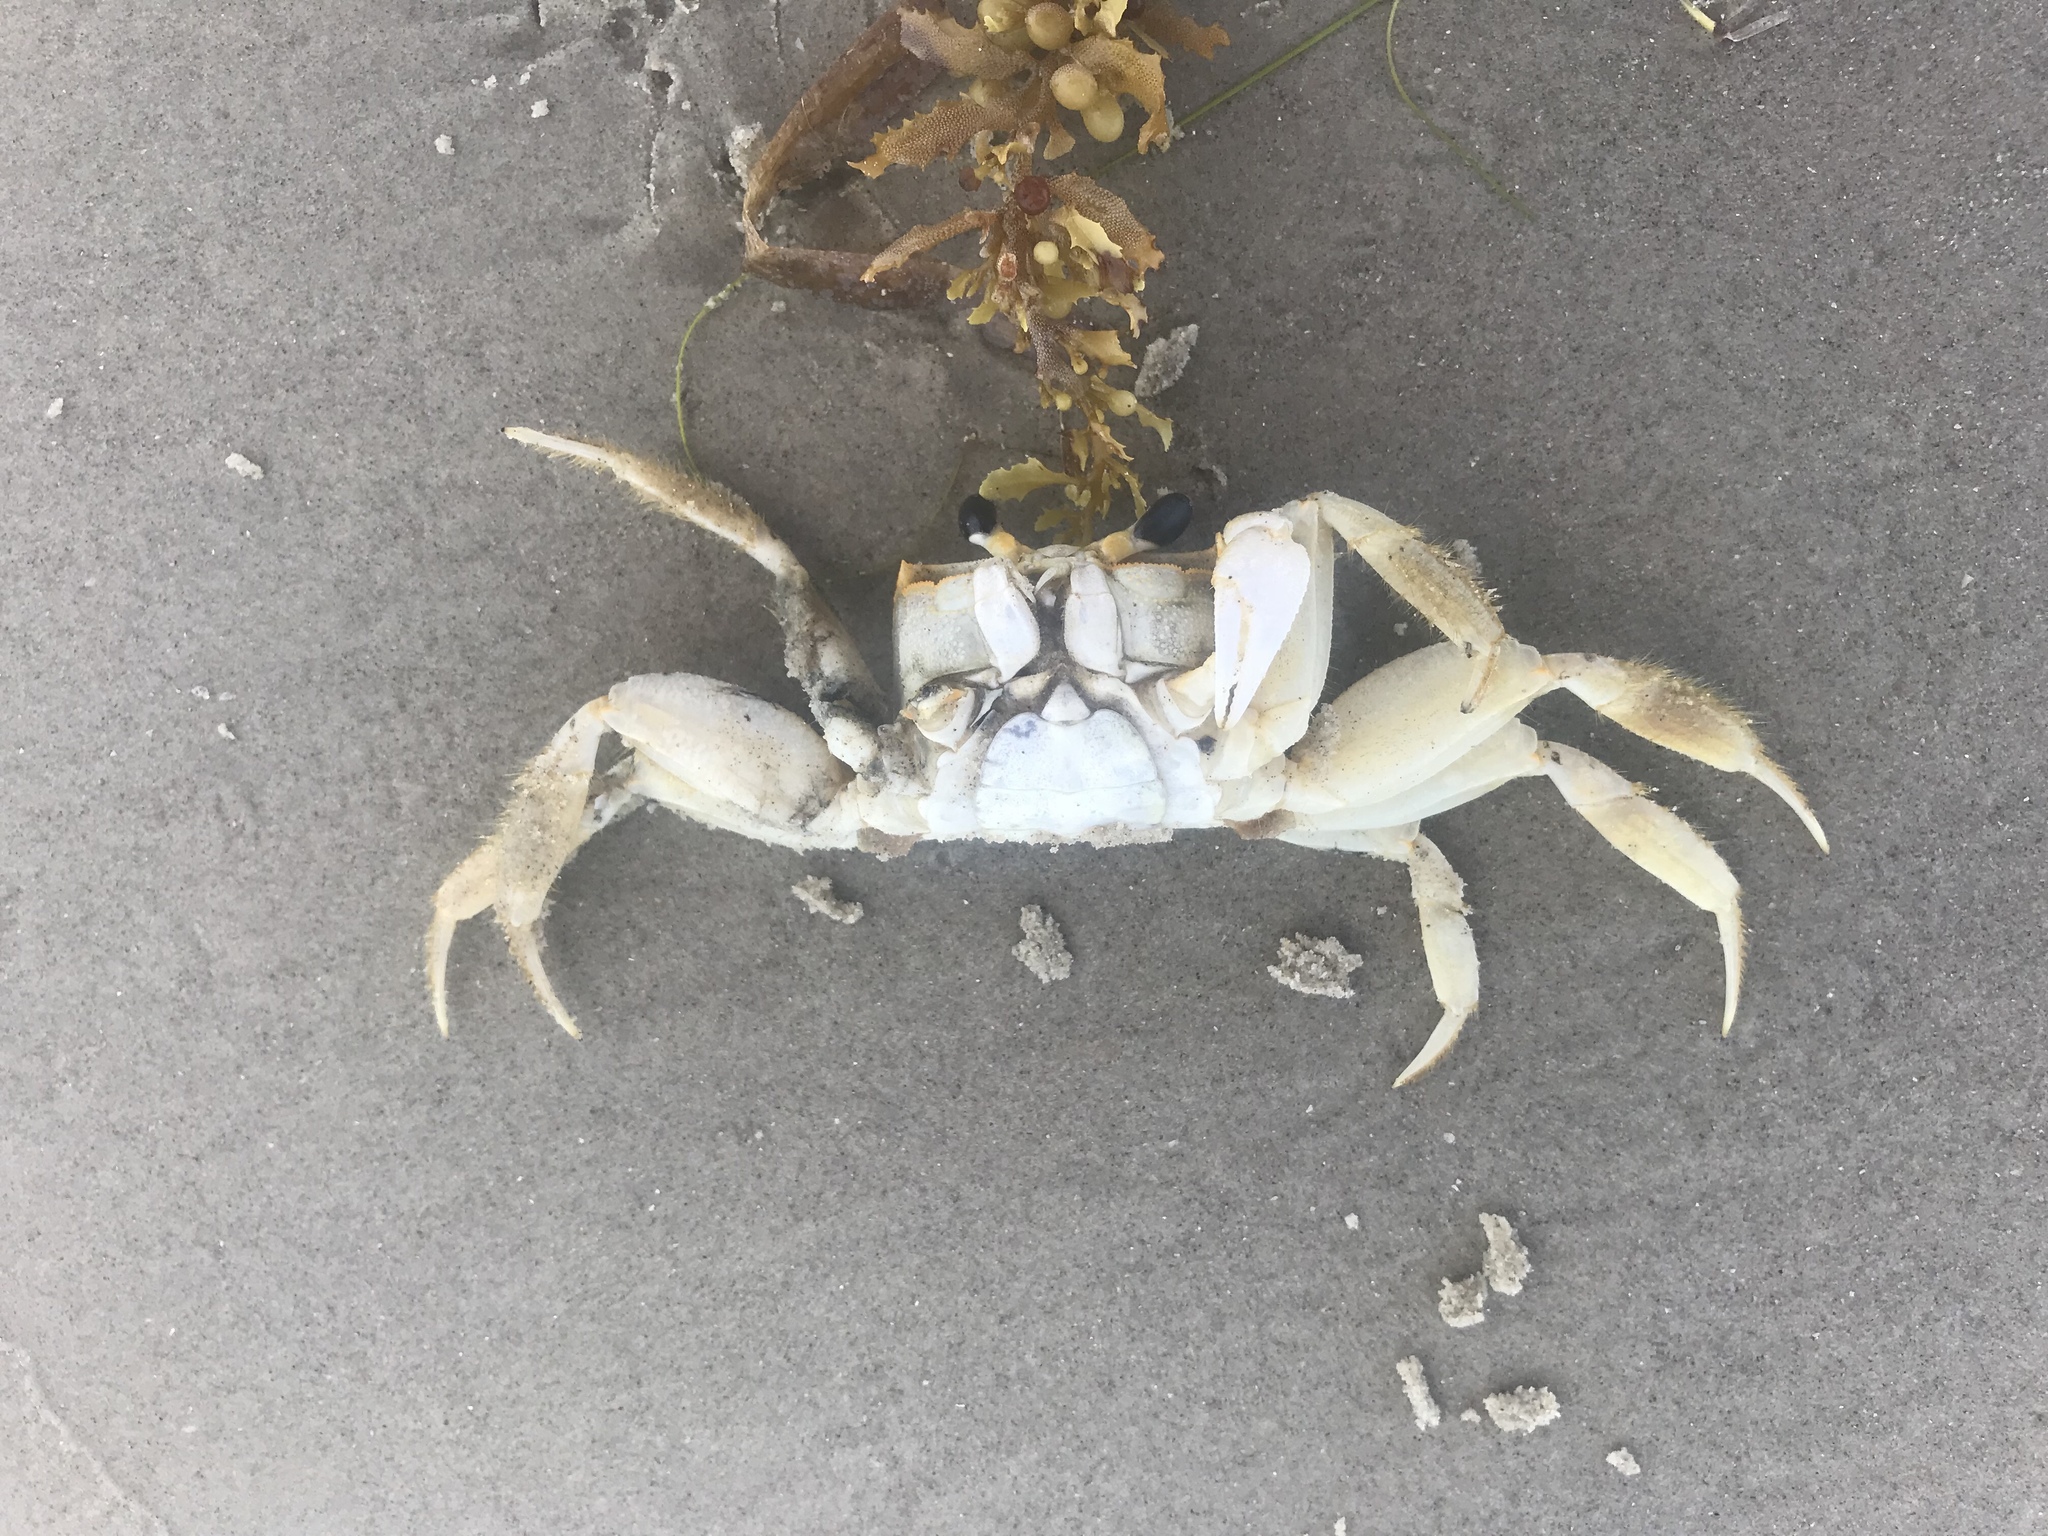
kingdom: Animalia
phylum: Arthropoda
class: Malacostraca
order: Decapoda
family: Ocypodidae
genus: Ocypode
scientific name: Ocypode quadrata
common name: Ghost crab
